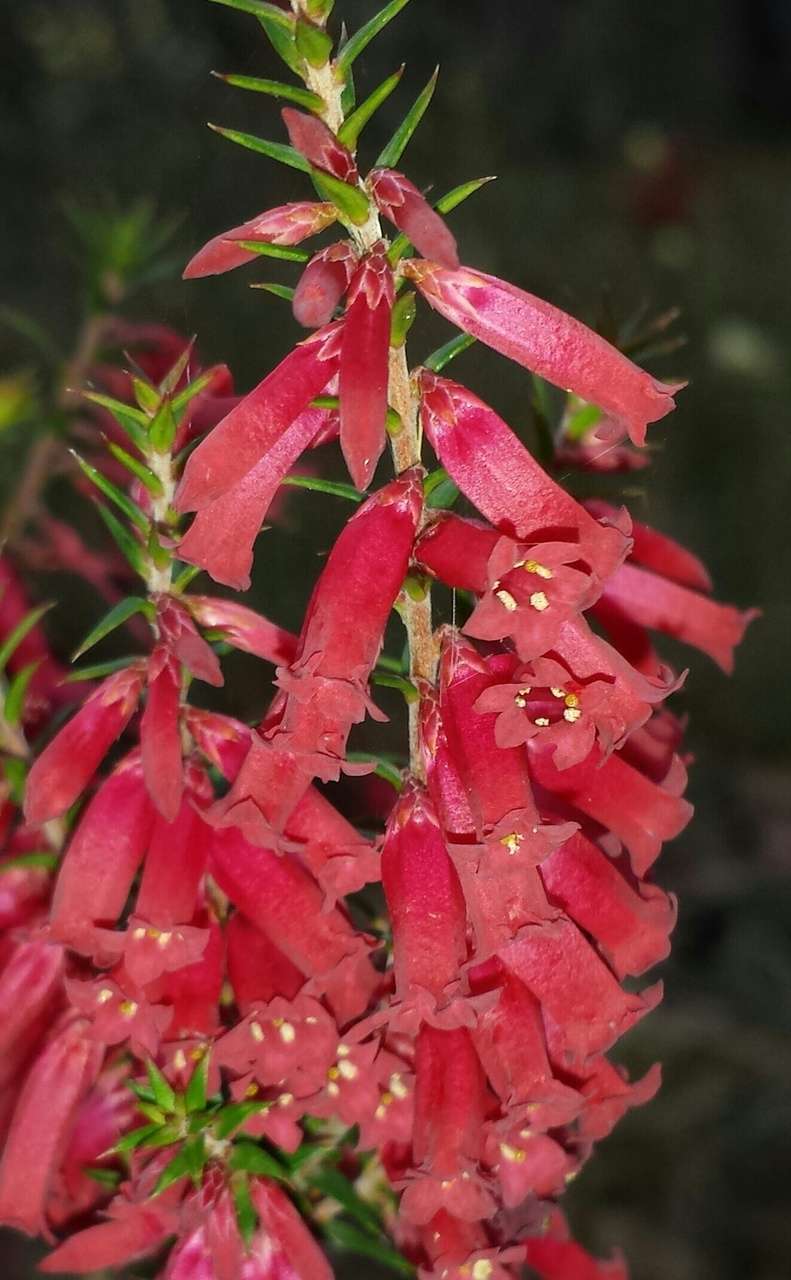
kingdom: Plantae
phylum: Tracheophyta
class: Magnoliopsida
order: Ericales
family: Ericaceae
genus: Epacris
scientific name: Epacris impressa
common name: Common-heath
